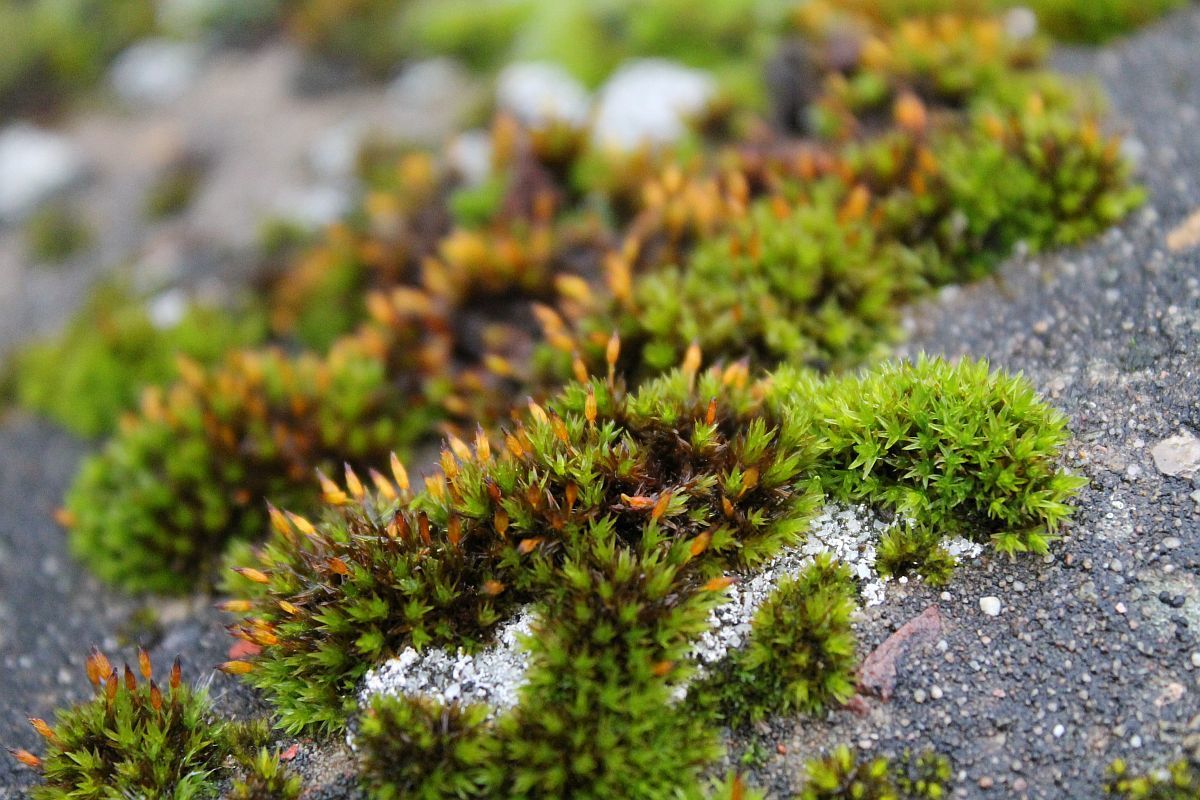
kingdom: Plantae
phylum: Bryophyta
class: Bryopsida
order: Orthotrichales
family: Orthotrichaceae
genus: Orthotrichum
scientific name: Orthotrichum anomalum
